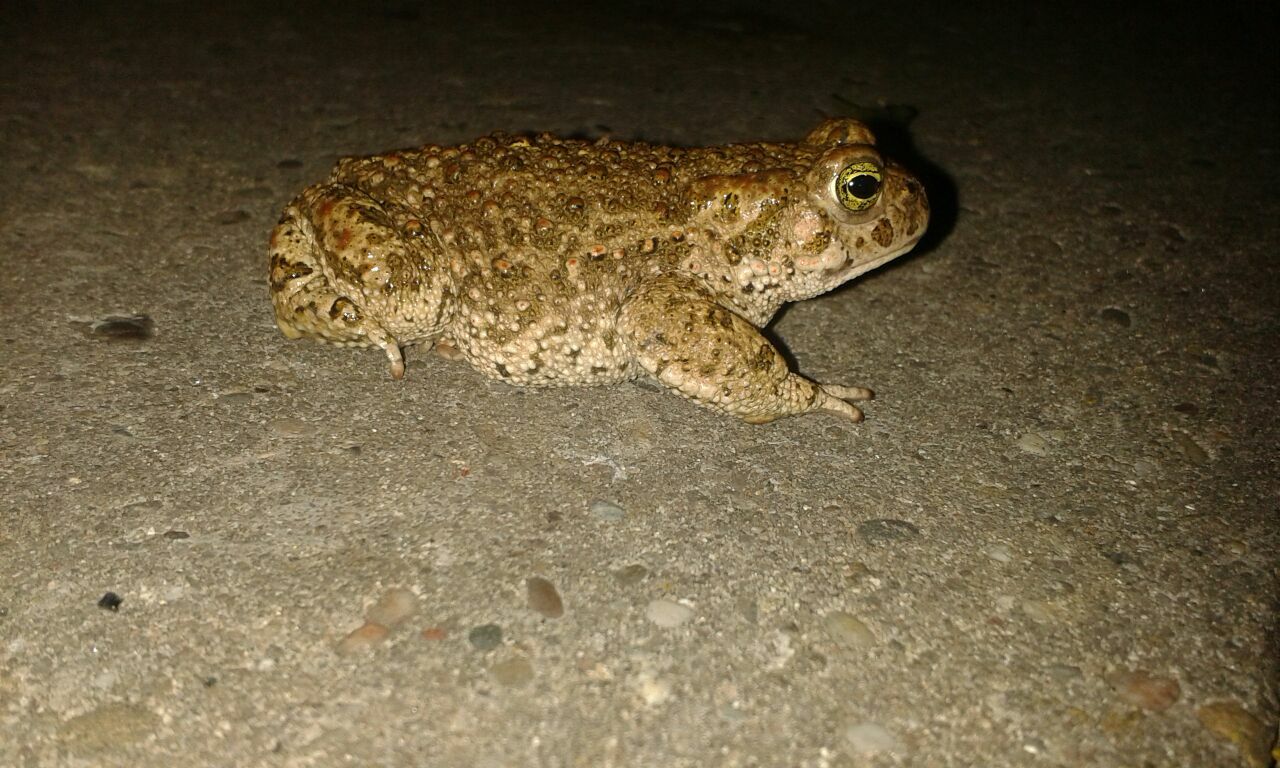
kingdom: Animalia
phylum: Chordata
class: Amphibia
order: Anura
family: Bufonidae
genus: Epidalea
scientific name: Epidalea calamita
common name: Natterjack toad
